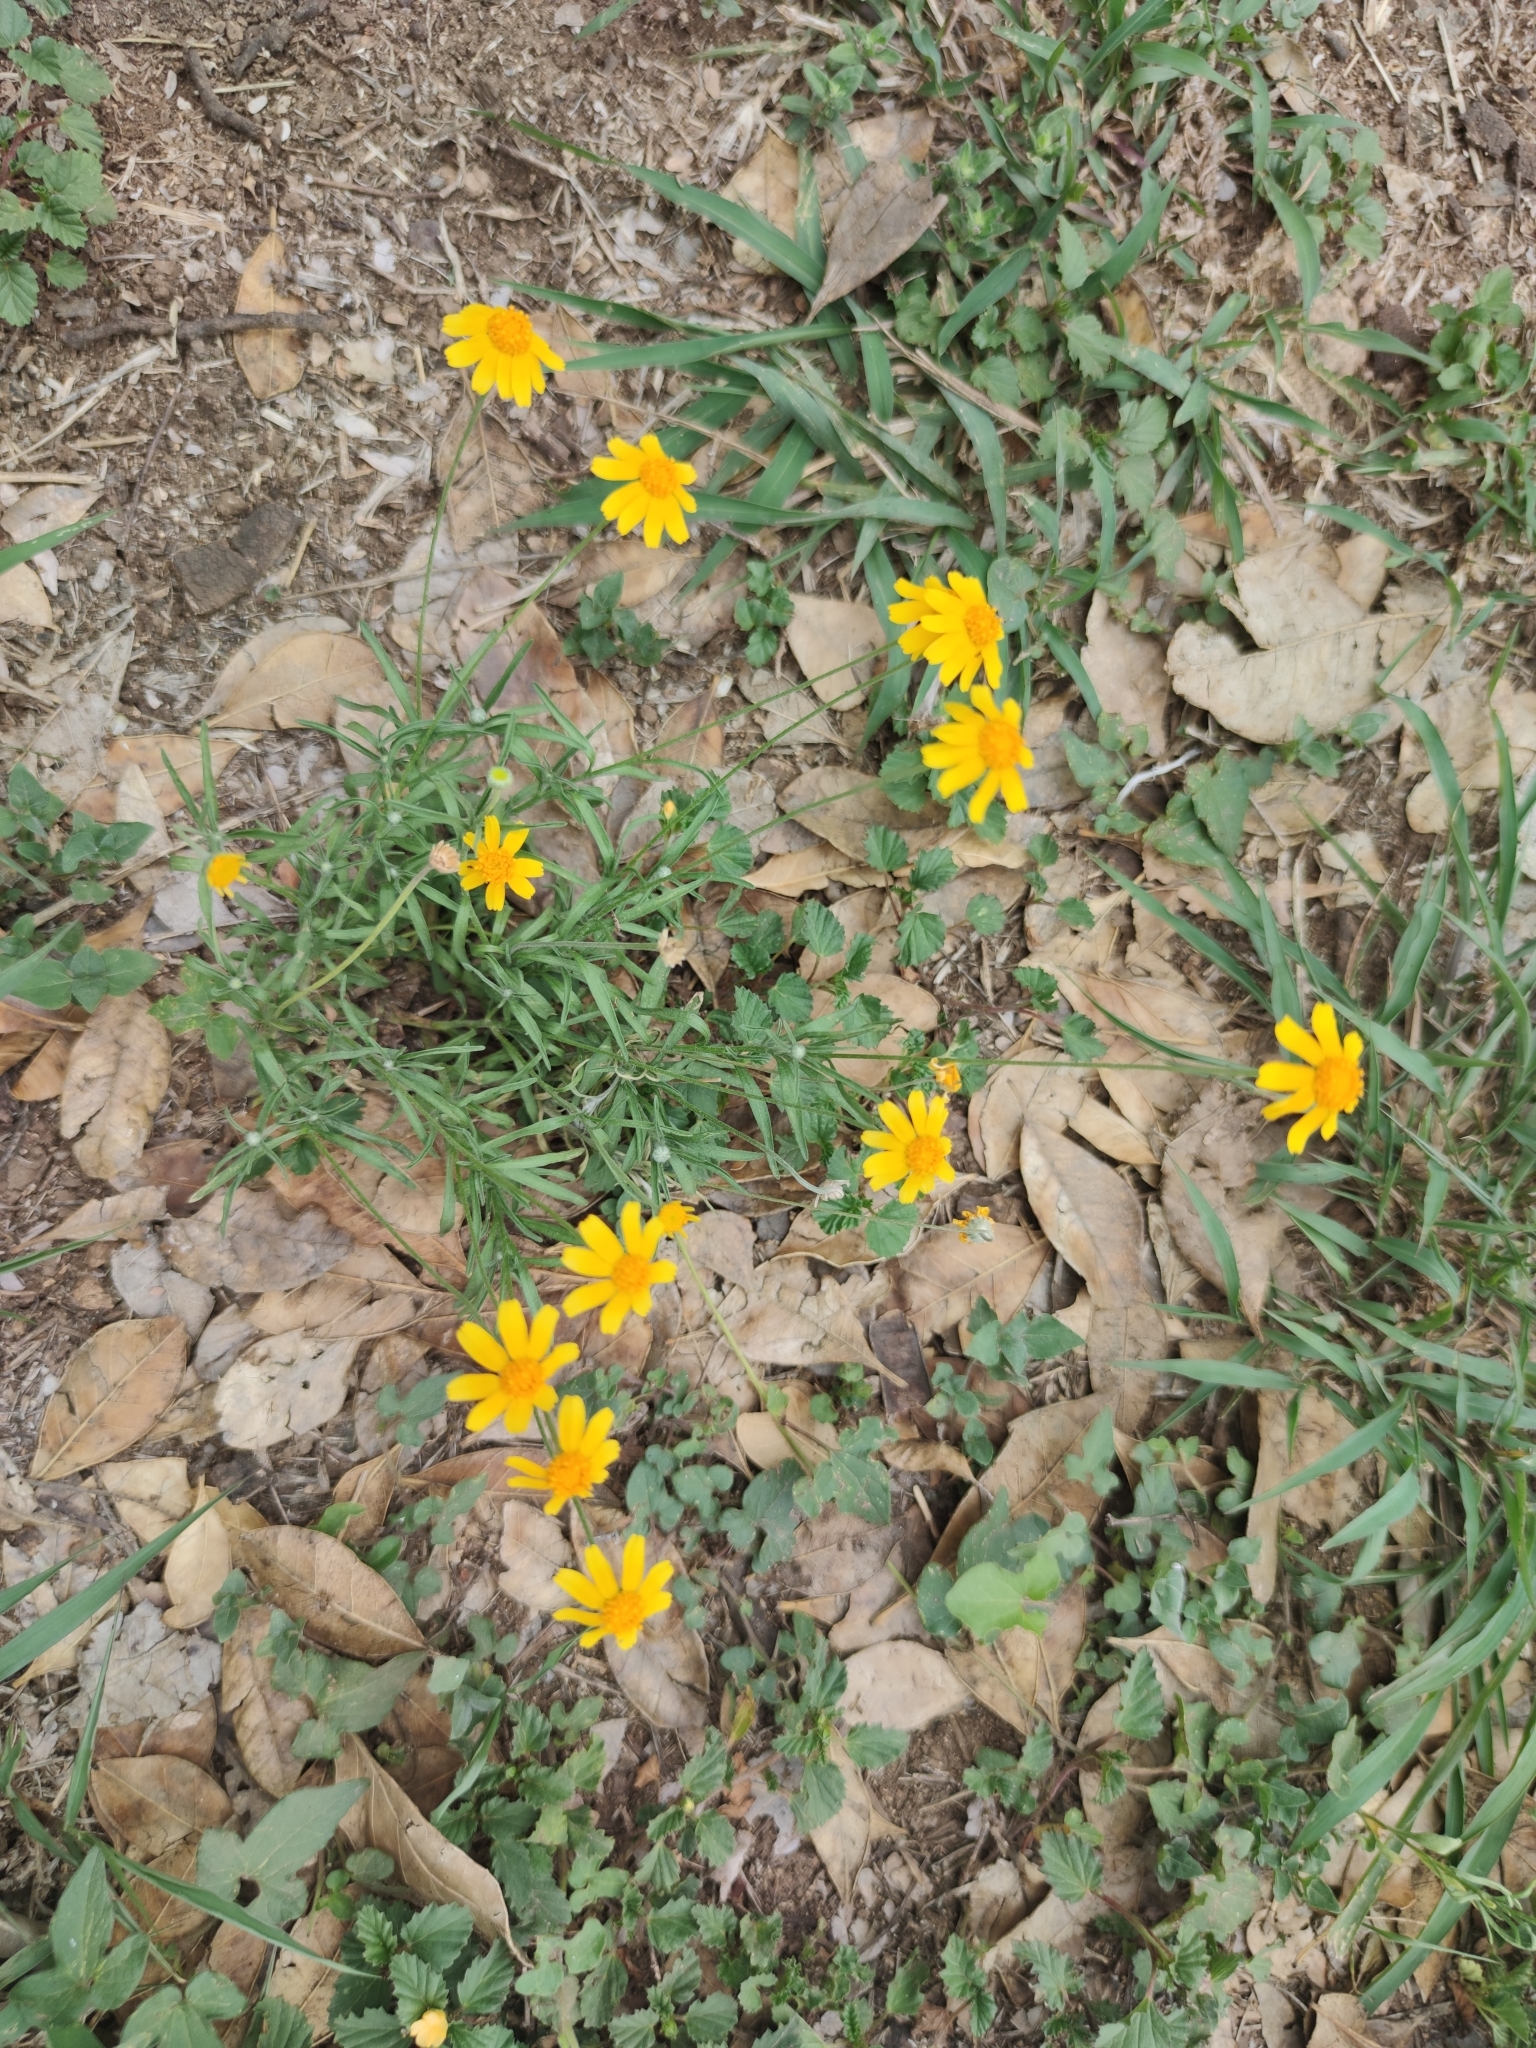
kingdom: Plantae
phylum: Tracheophyta
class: Magnoliopsida
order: Asterales
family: Asteraceae
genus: Tetraneuris
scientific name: Tetraneuris linearifolia
